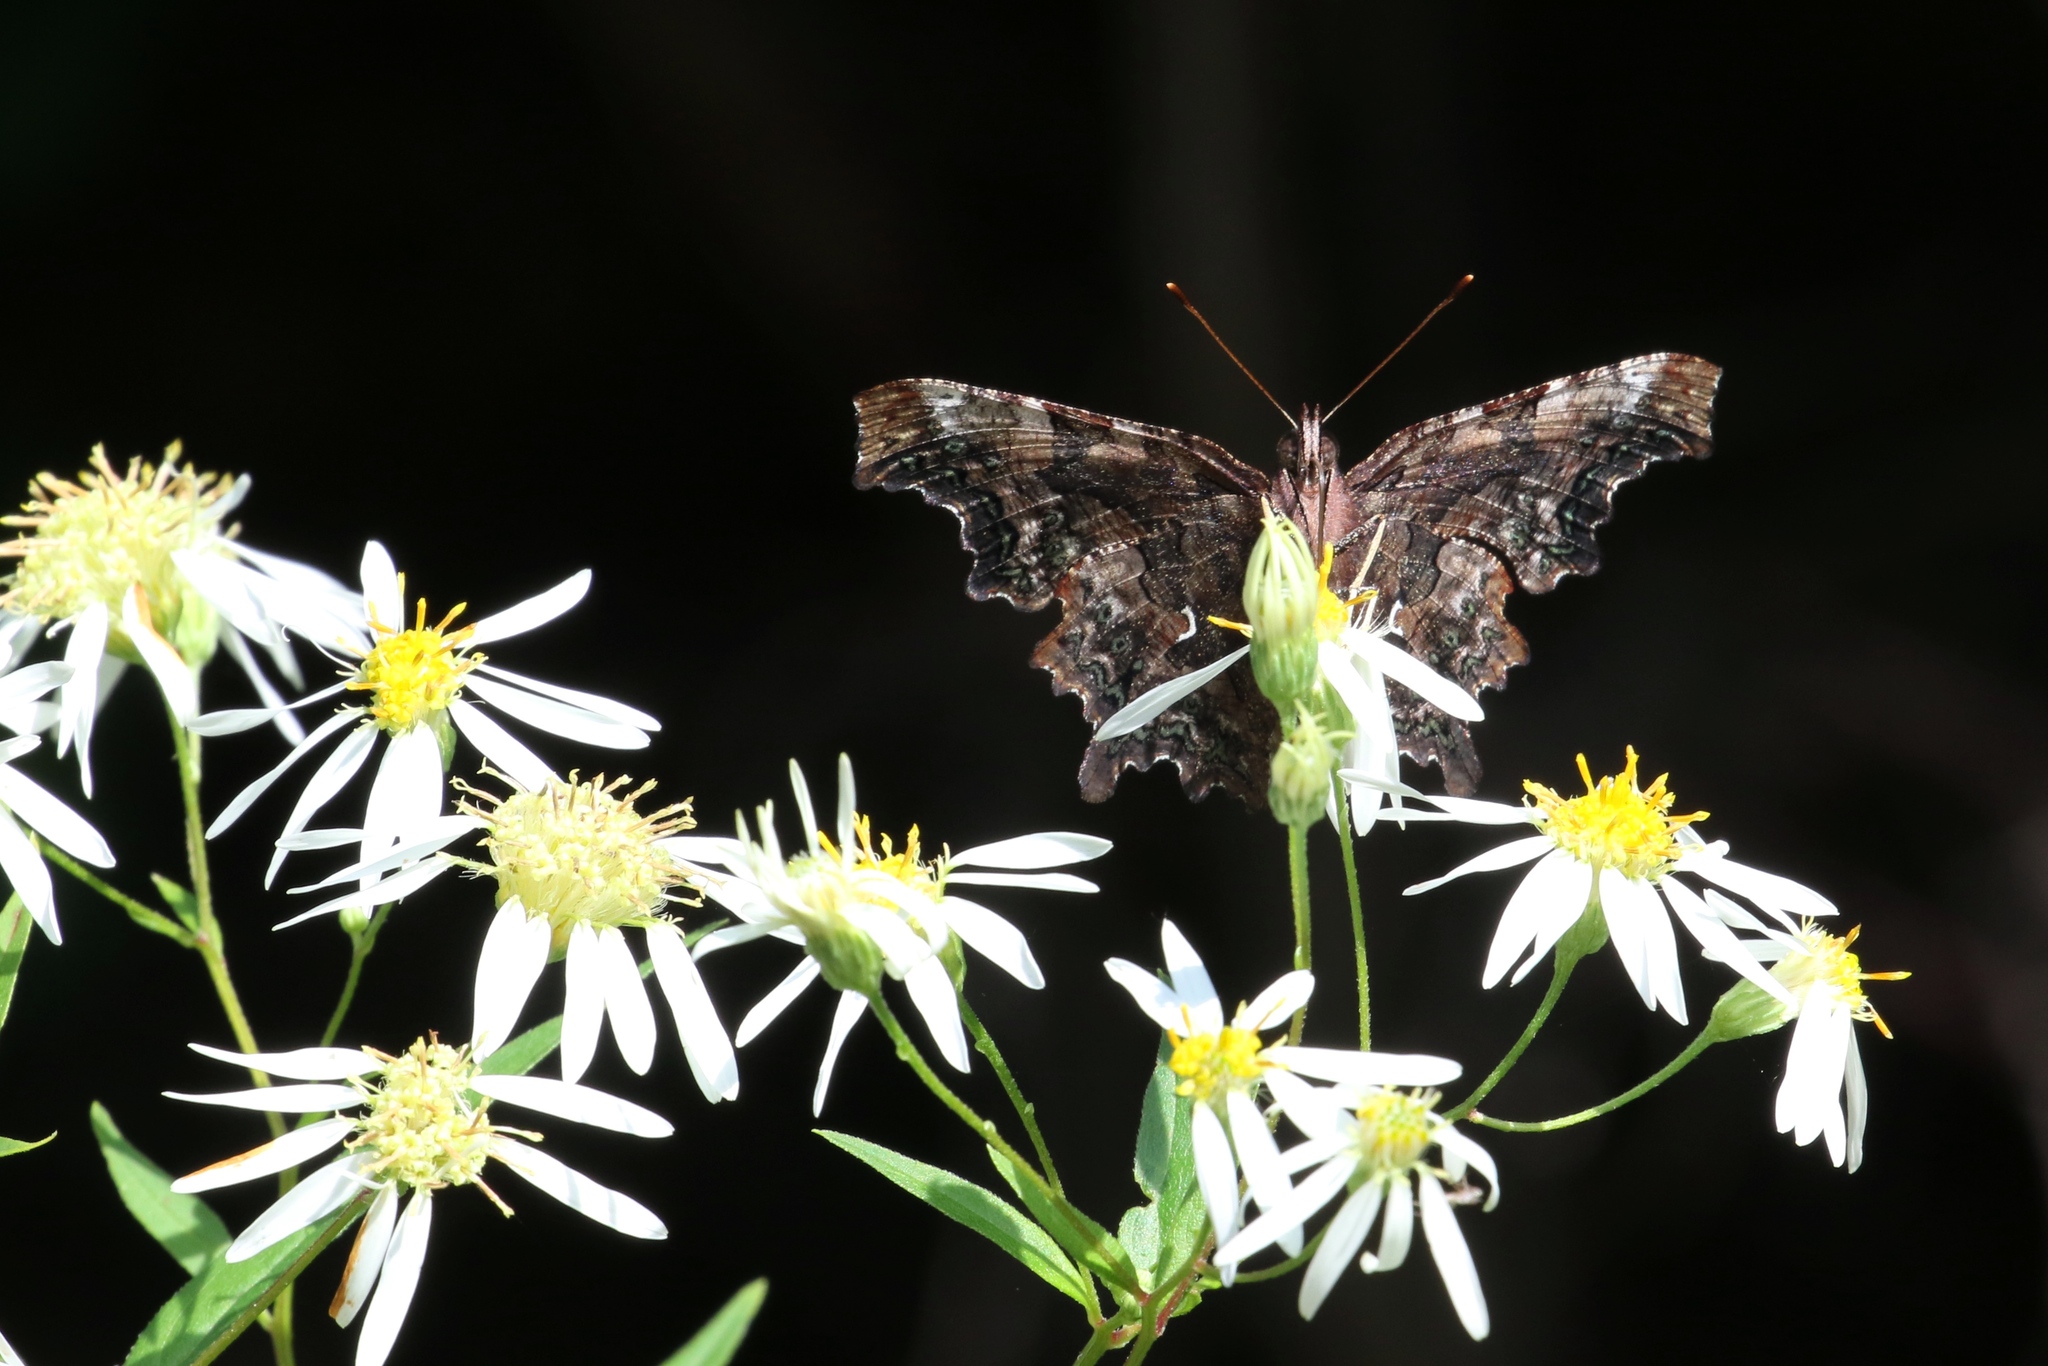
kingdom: Animalia
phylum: Arthropoda
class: Insecta
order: Lepidoptera
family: Nymphalidae
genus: Polygonia
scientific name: Polygonia faunus
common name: Green comma
